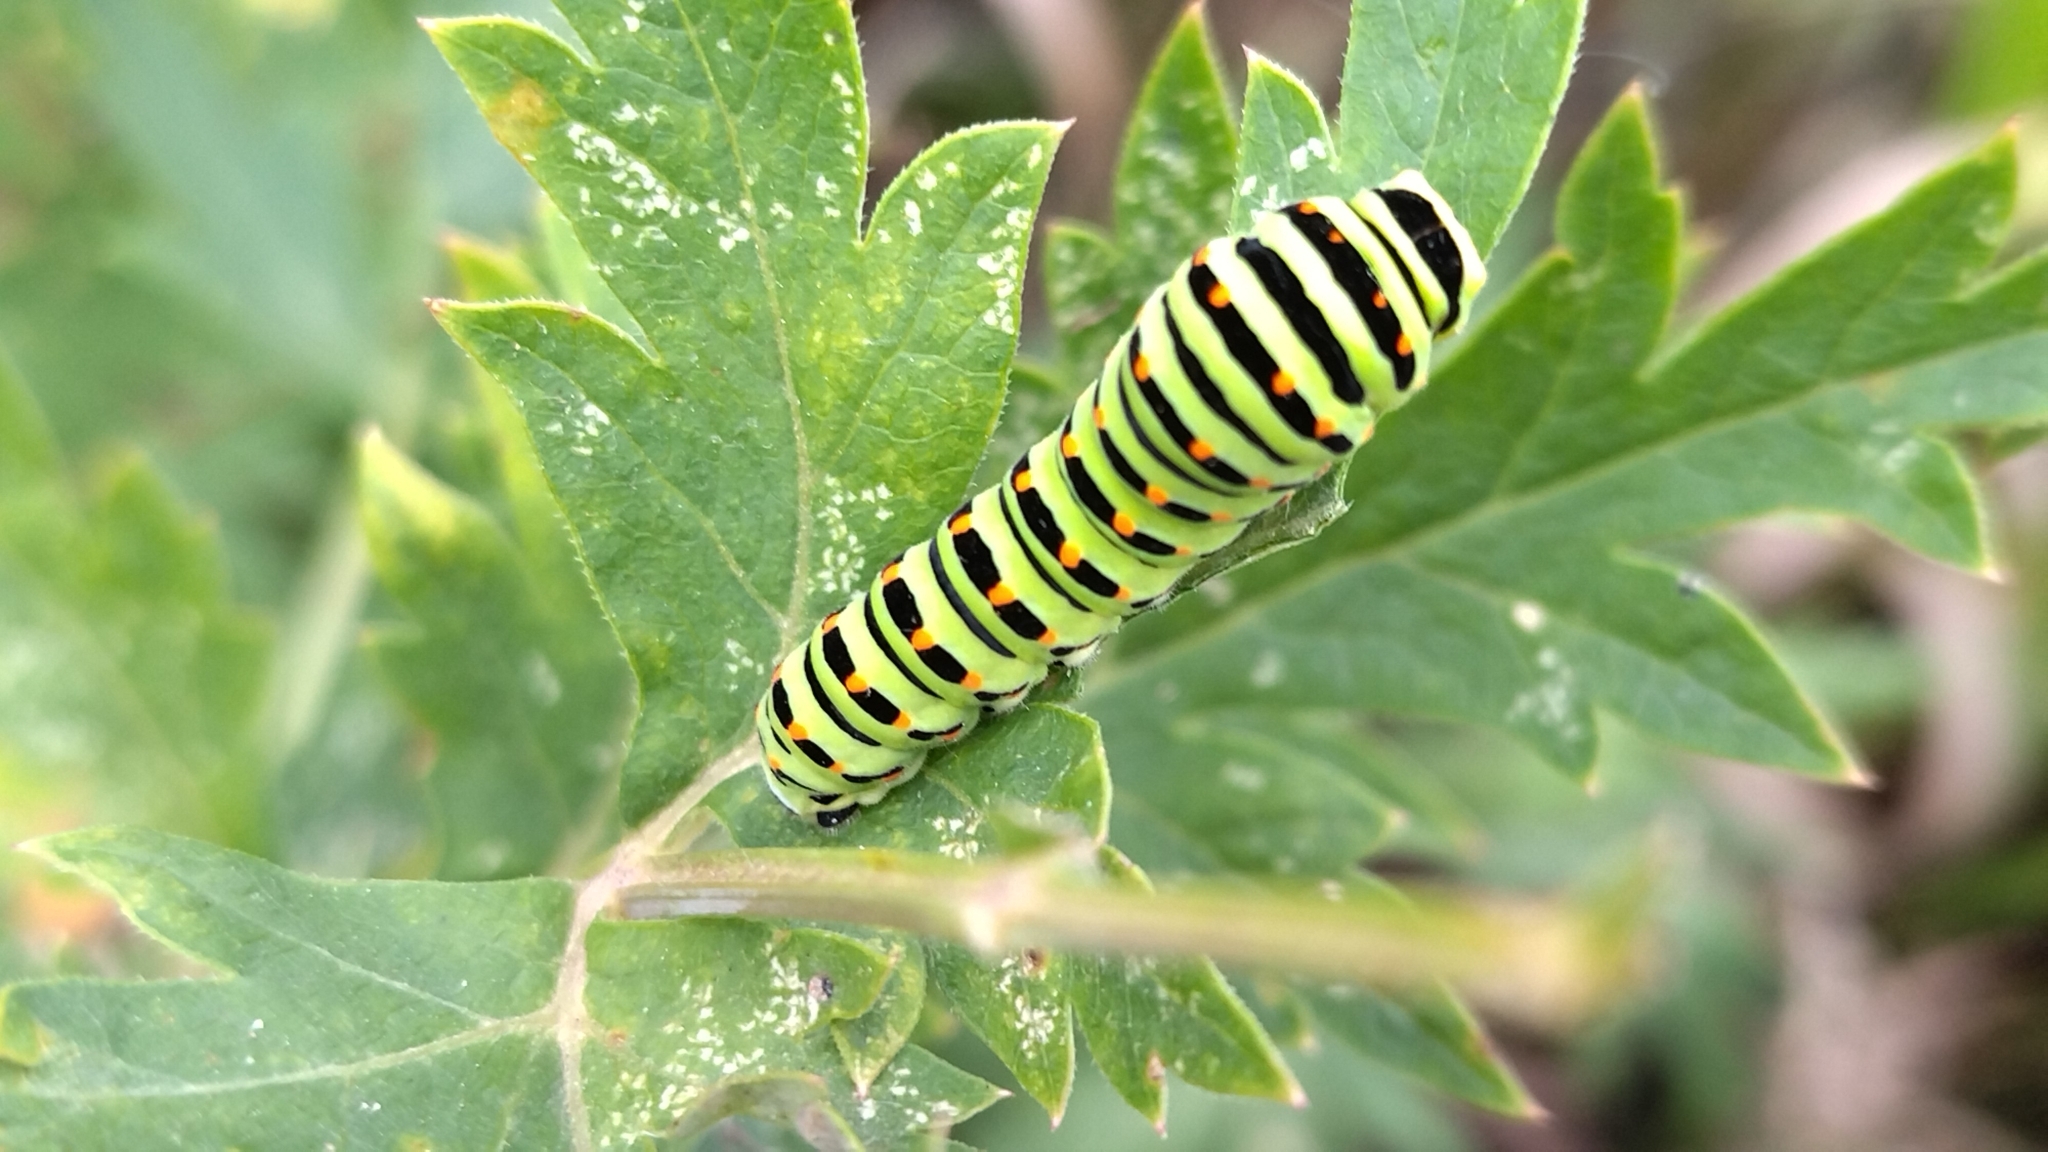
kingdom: Animalia
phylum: Arthropoda
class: Insecta
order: Lepidoptera
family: Papilionidae
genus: Papilio
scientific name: Papilio machaon
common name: Swallowtail
